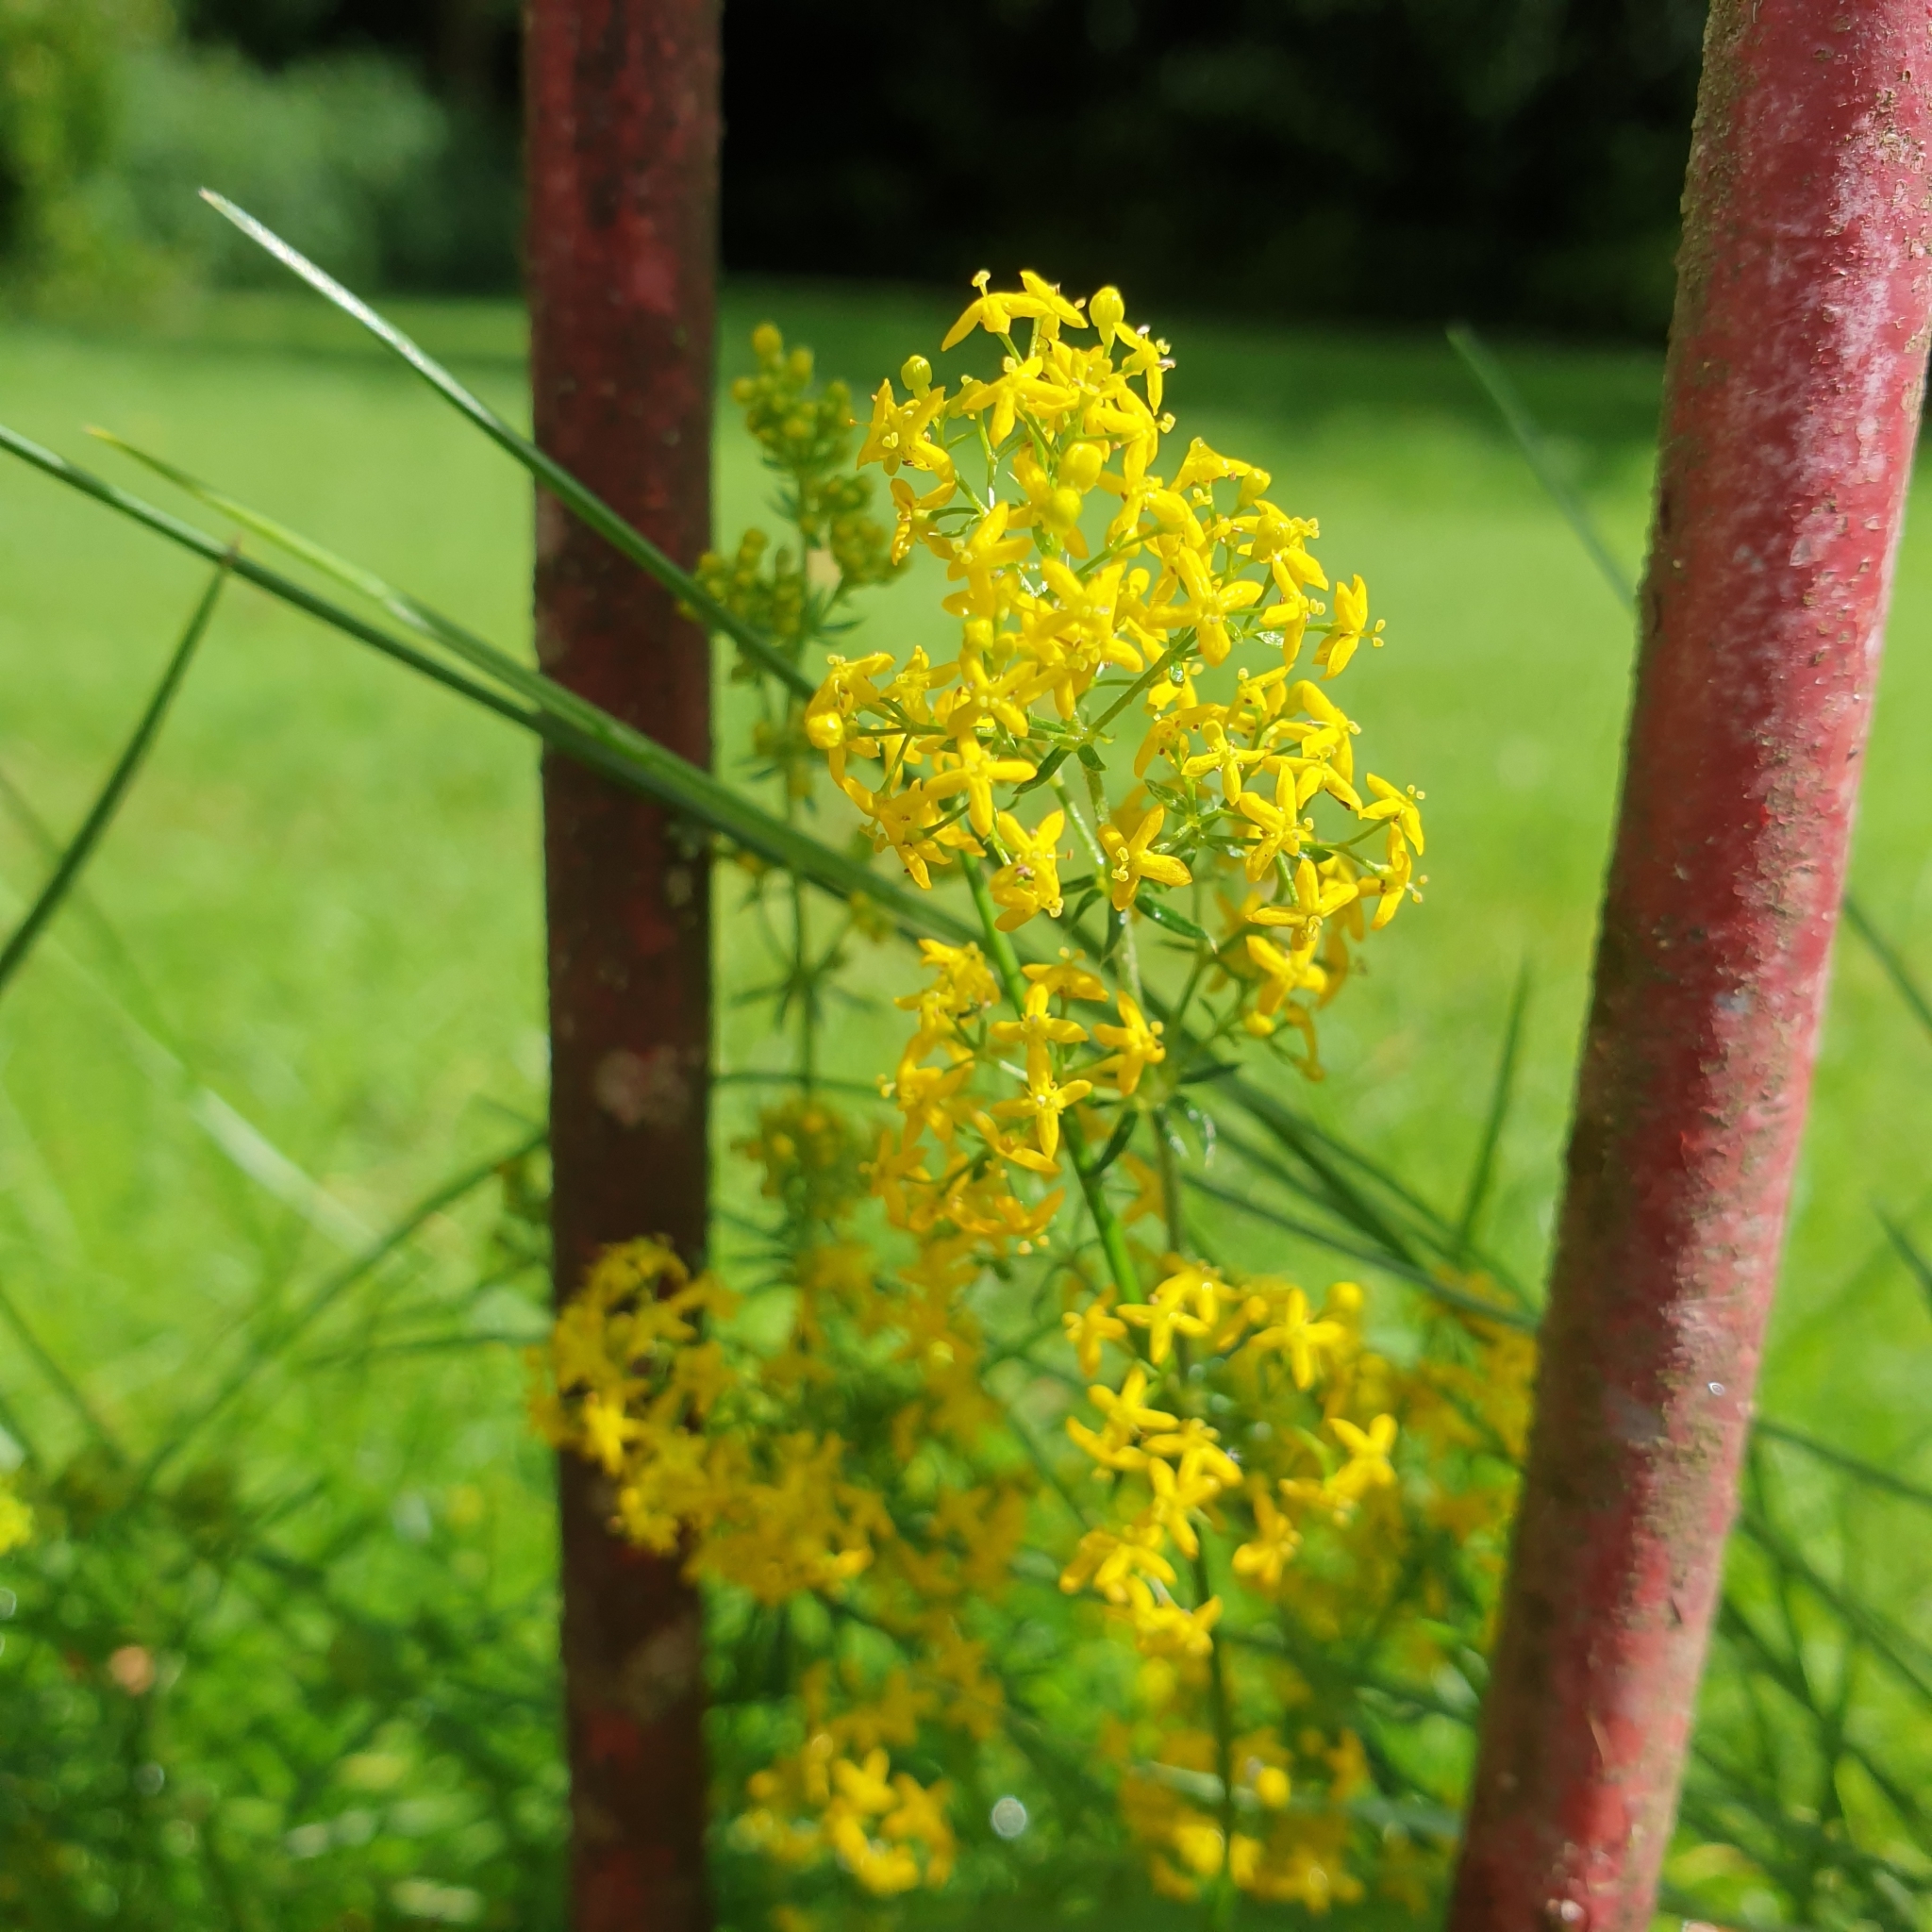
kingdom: Plantae
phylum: Tracheophyta
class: Magnoliopsida
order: Gentianales
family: Rubiaceae
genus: Galium
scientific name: Galium verum
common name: Lady's bedstraw
